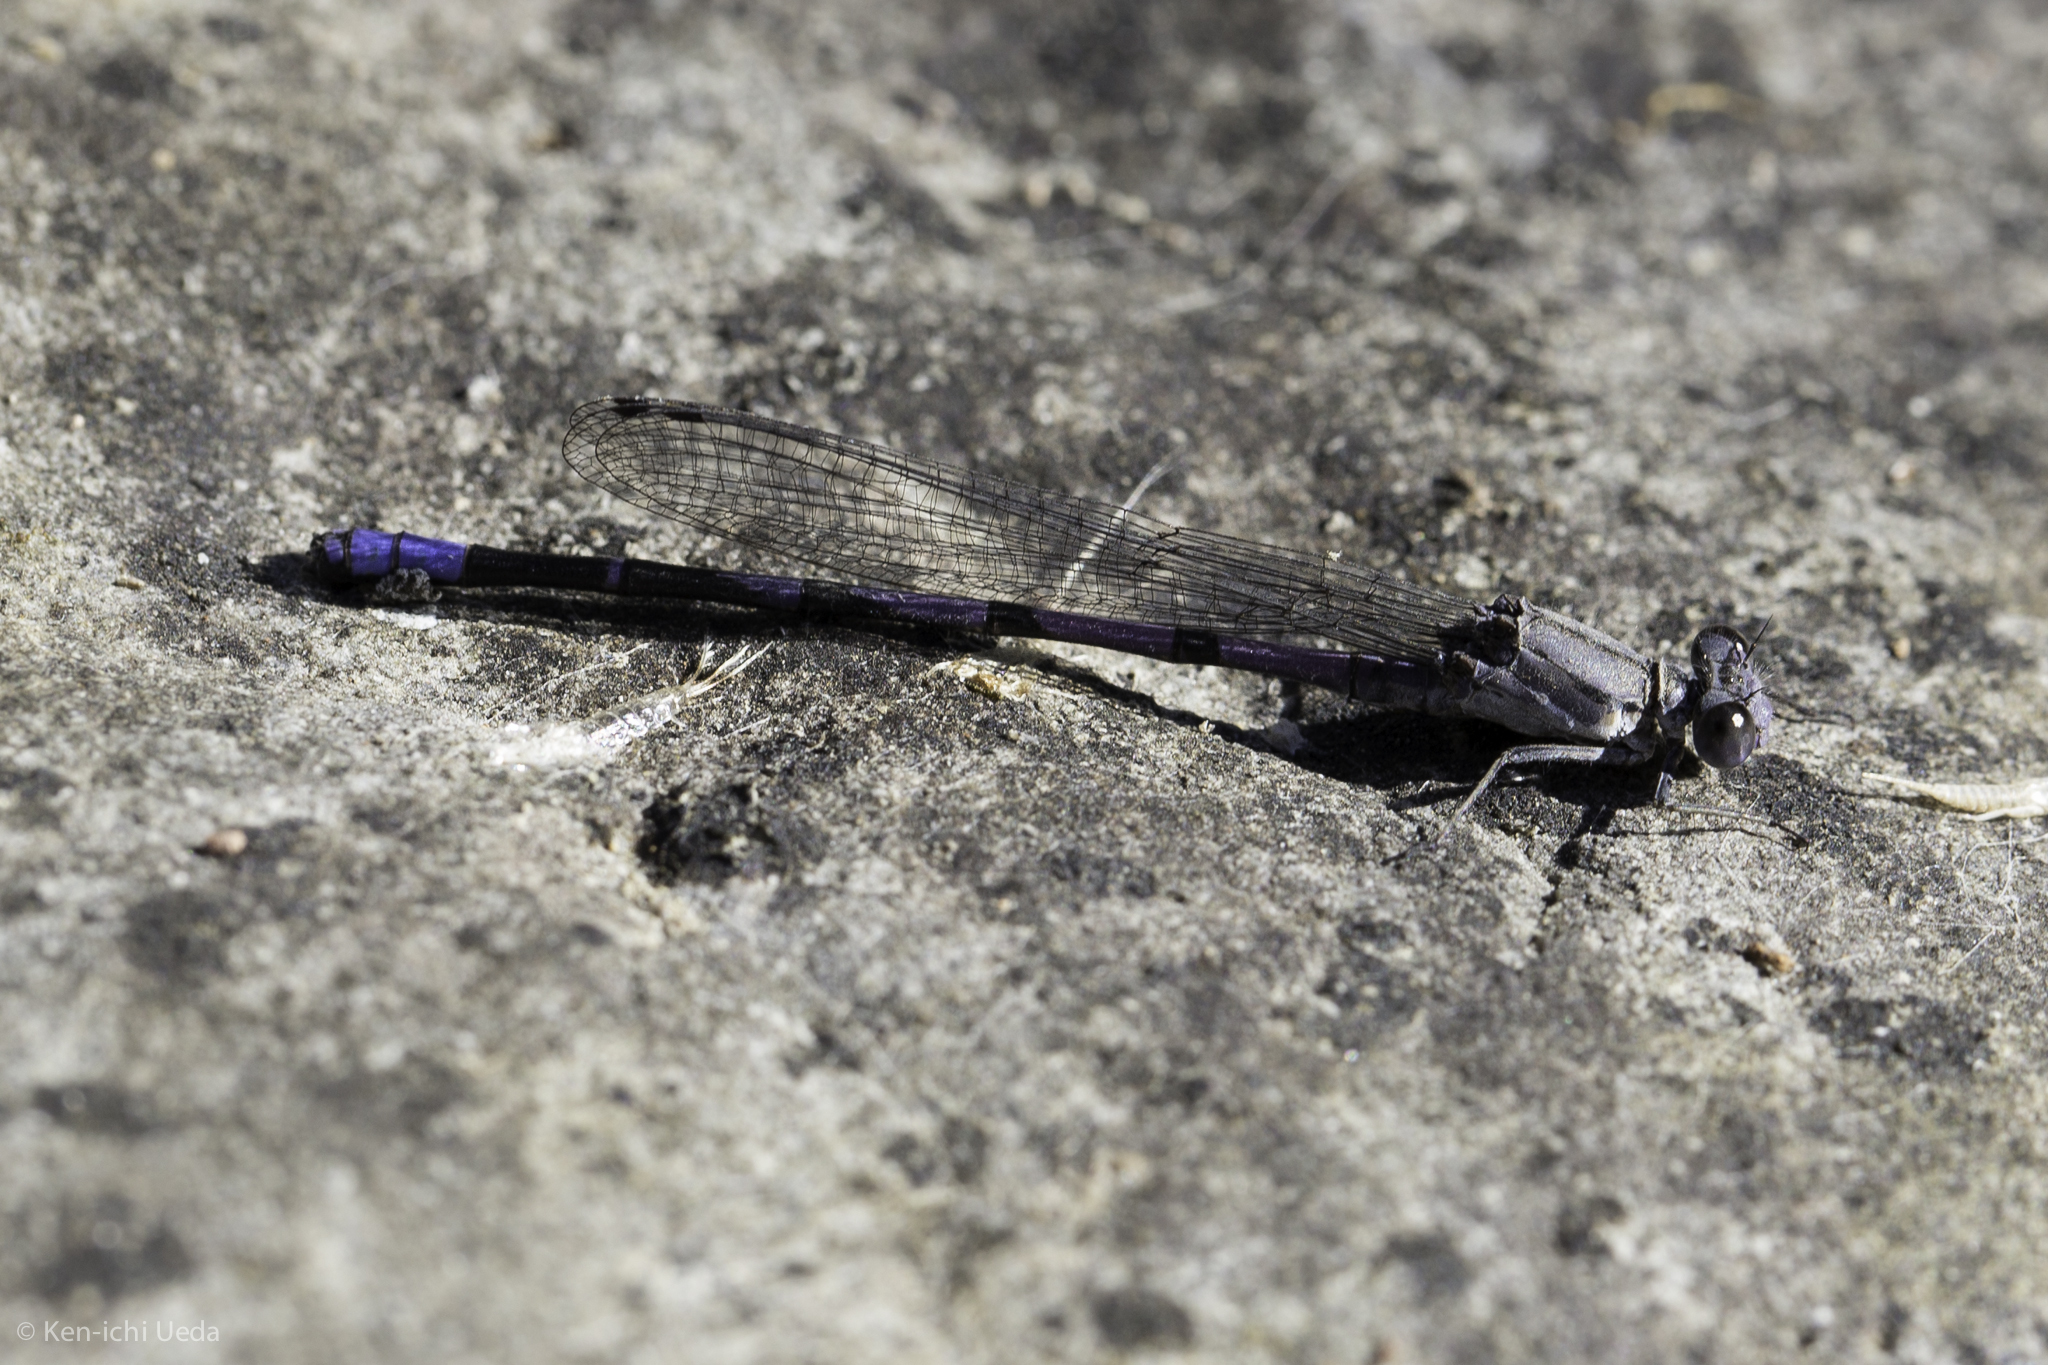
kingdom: Animalia
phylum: Arthropoda
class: Insecta
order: Odonata
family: Coenagrionidae
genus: Argia
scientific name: Argia emma
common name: Emma's dancer
